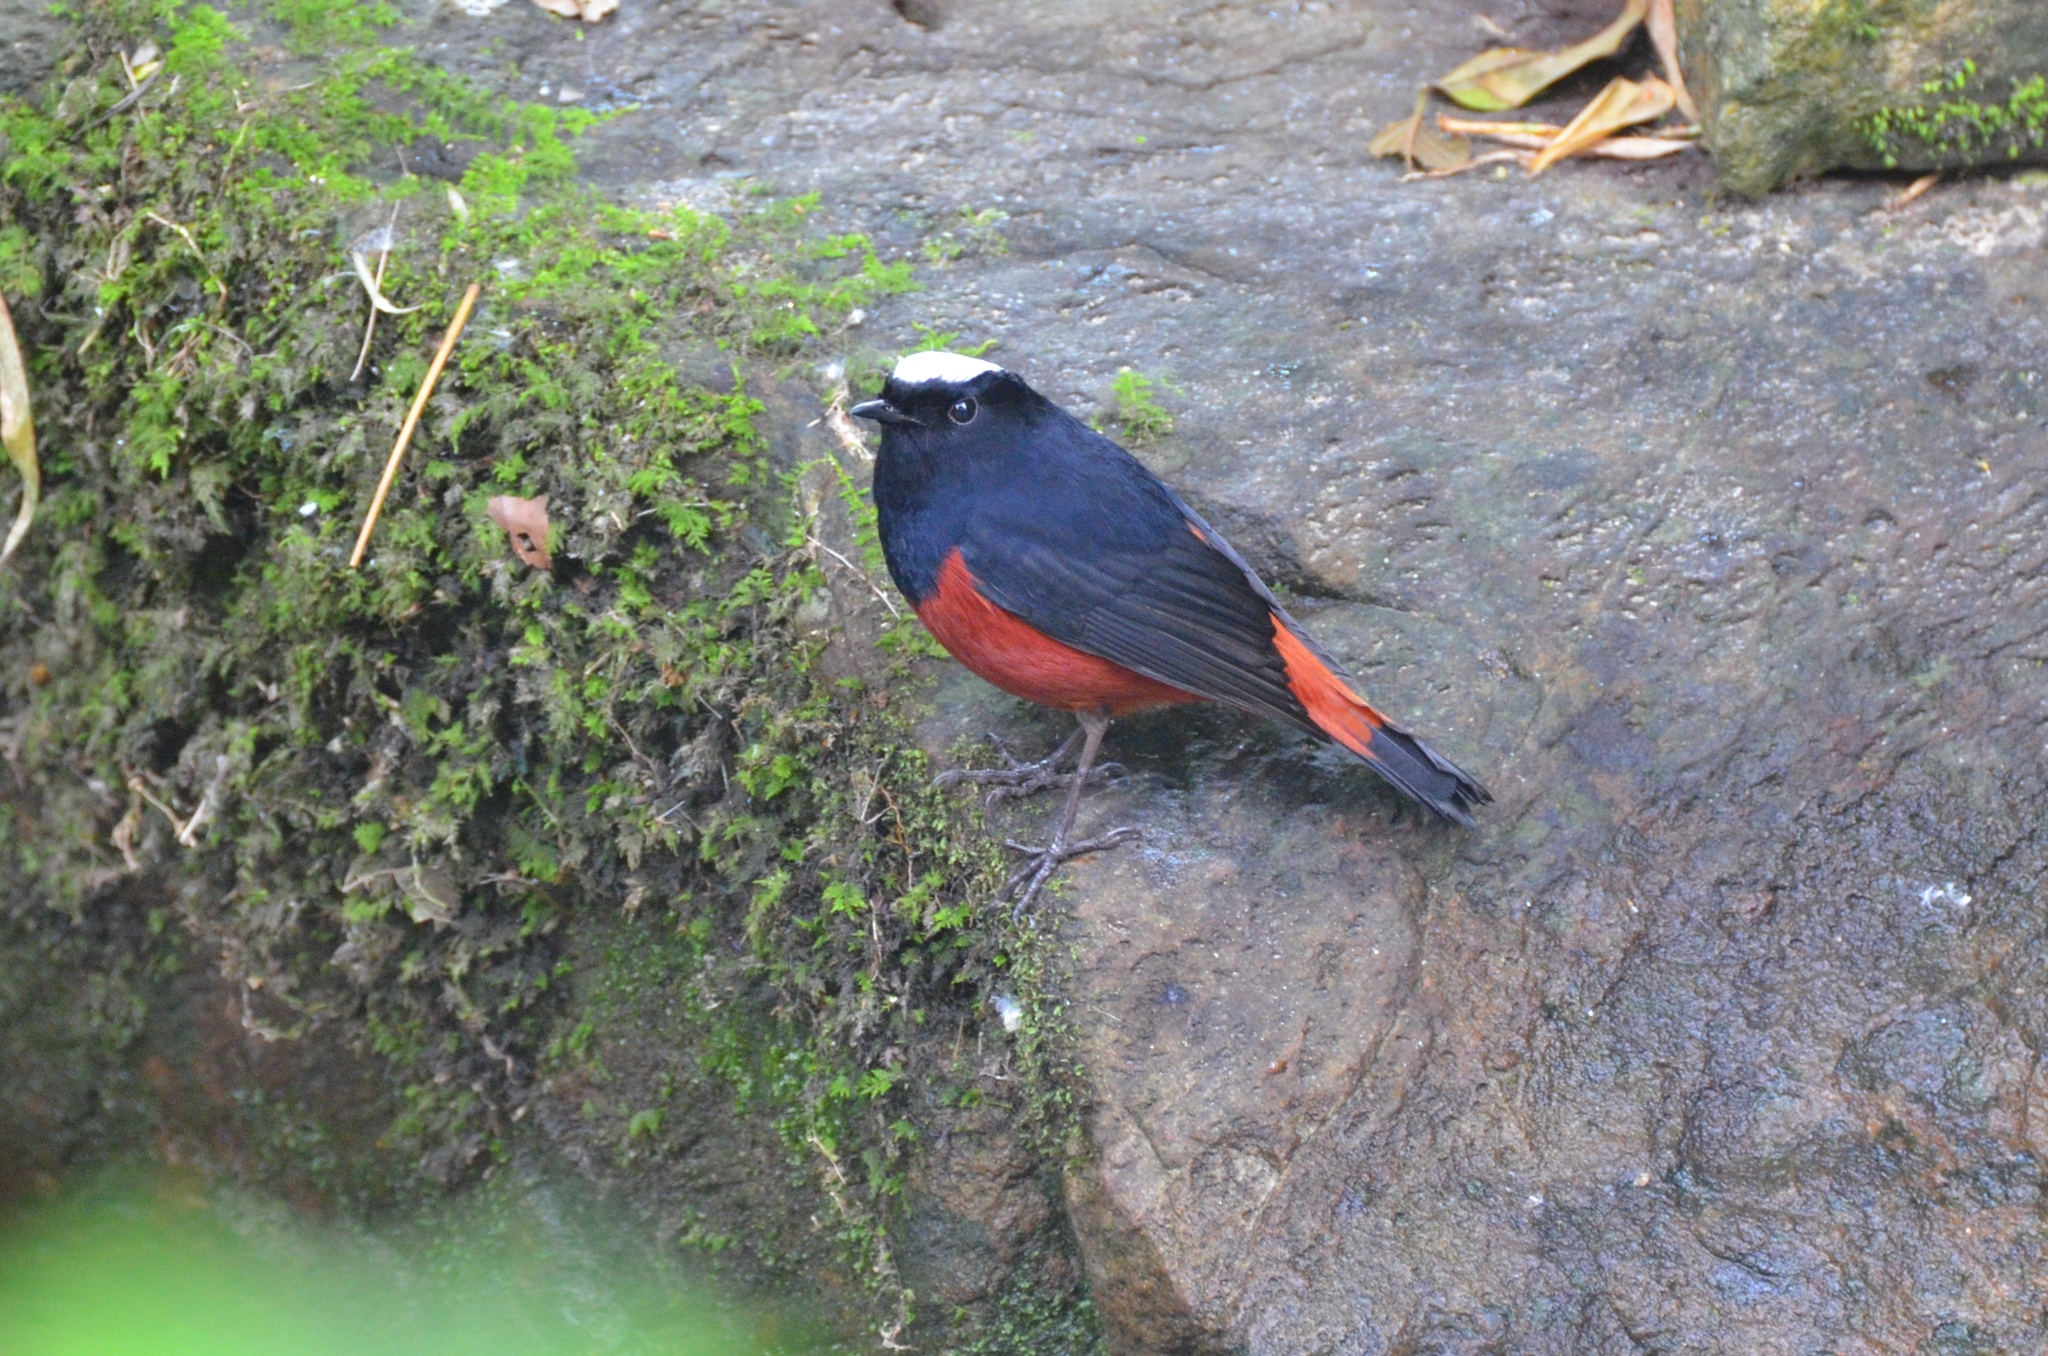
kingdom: Animalia
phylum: Chordata
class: Aves
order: Passeriformes
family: Muscicapidae
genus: Chaimarrornis
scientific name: Chaimarrornis leucocephalus
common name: White-capped redstart
